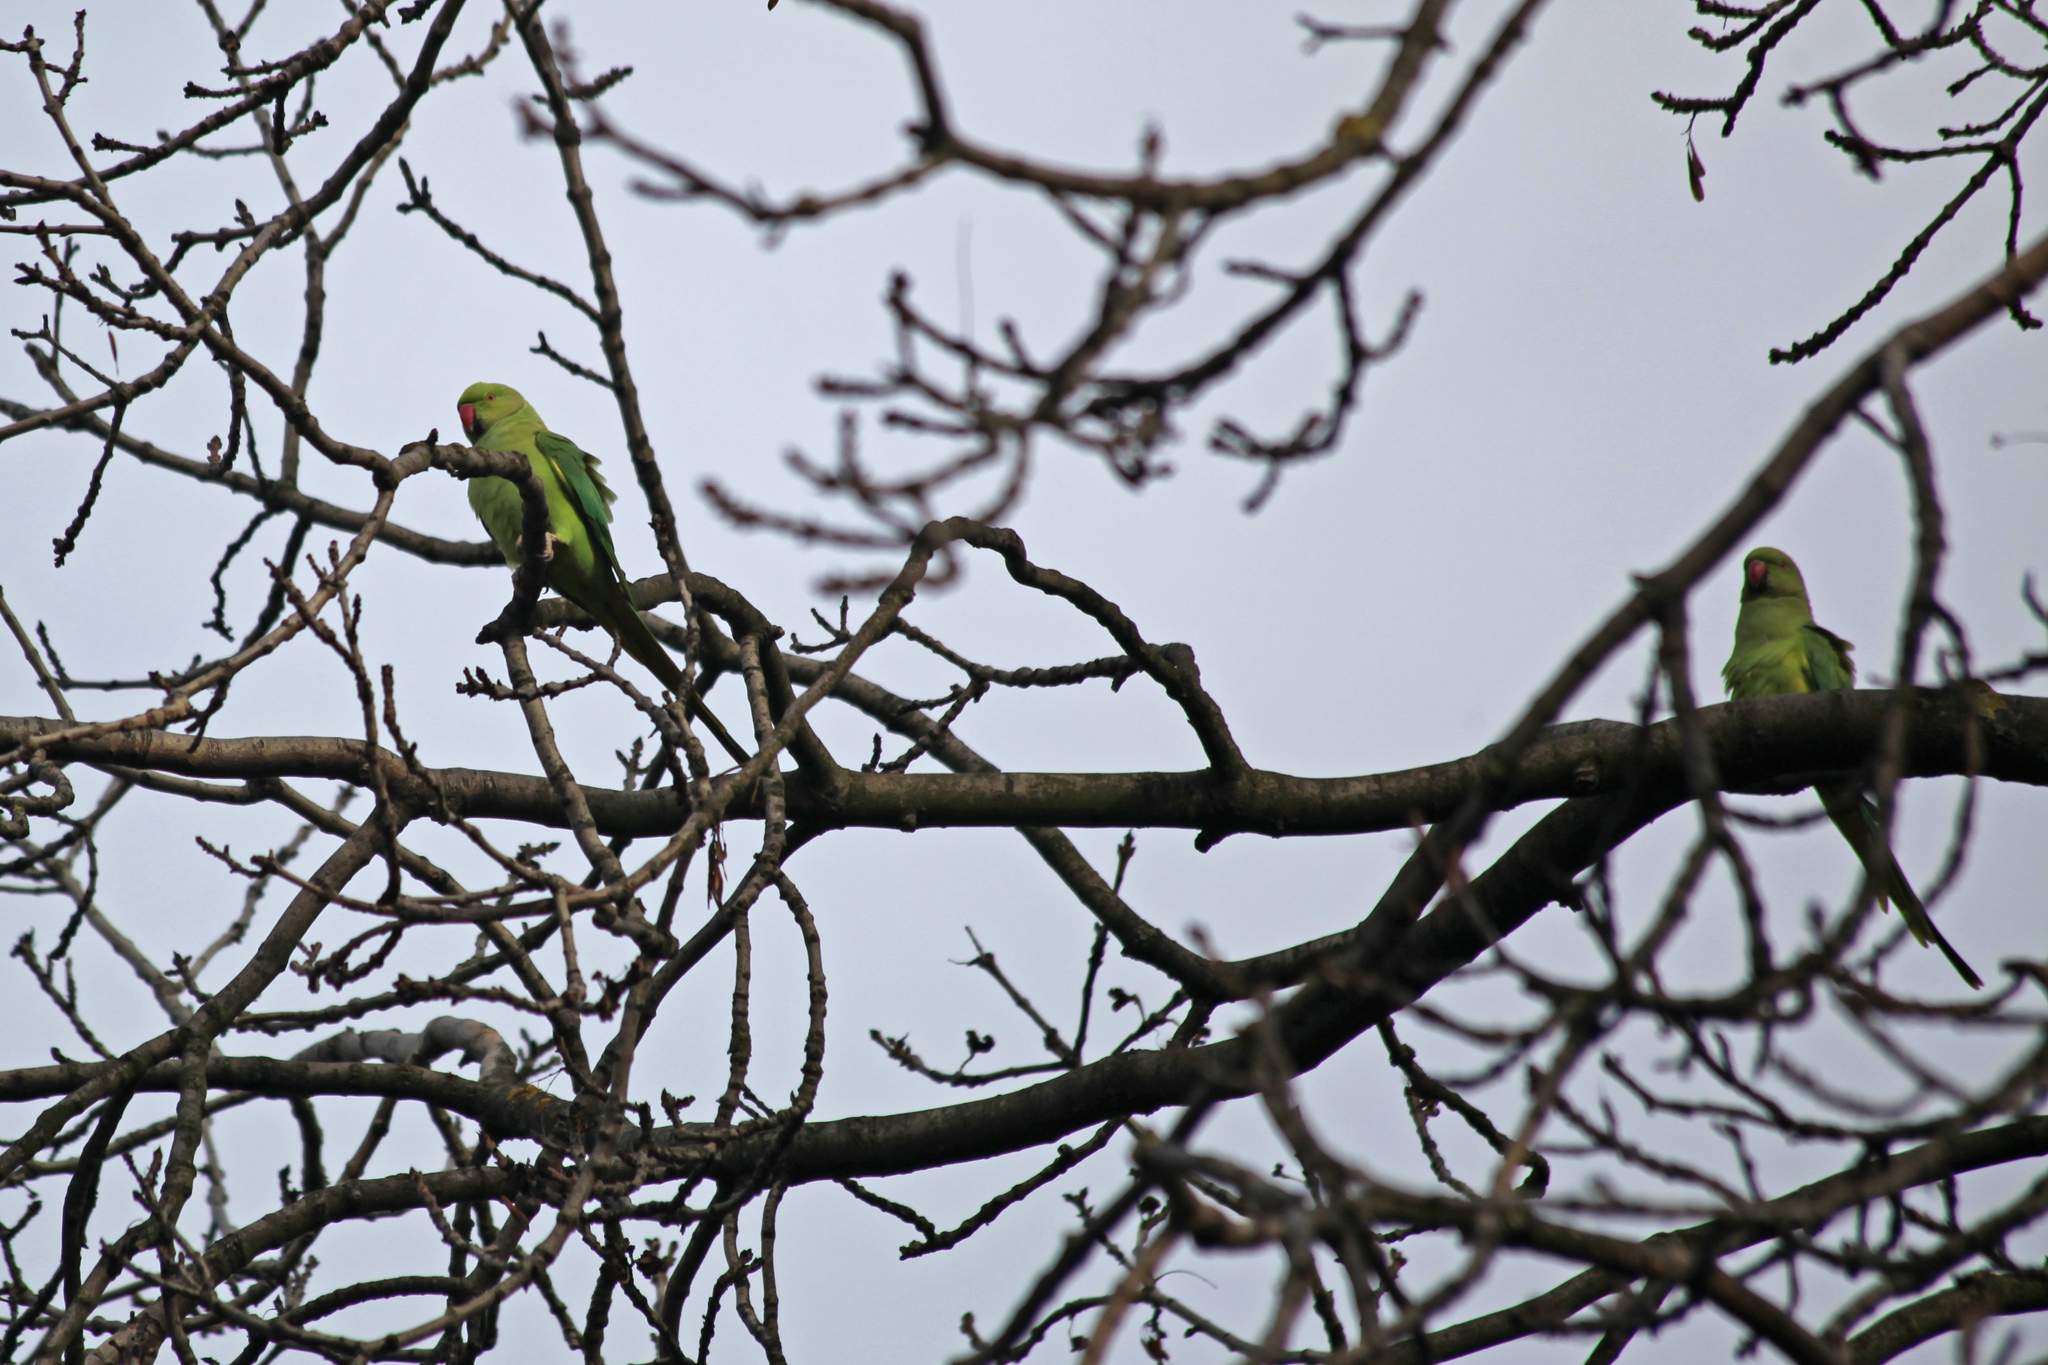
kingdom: Animalia
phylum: Chordata
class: Aves
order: Psittaciformes
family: Psittacidae
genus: Psittacula
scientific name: Psittacula krameri
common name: Rose-ringed parakeet
